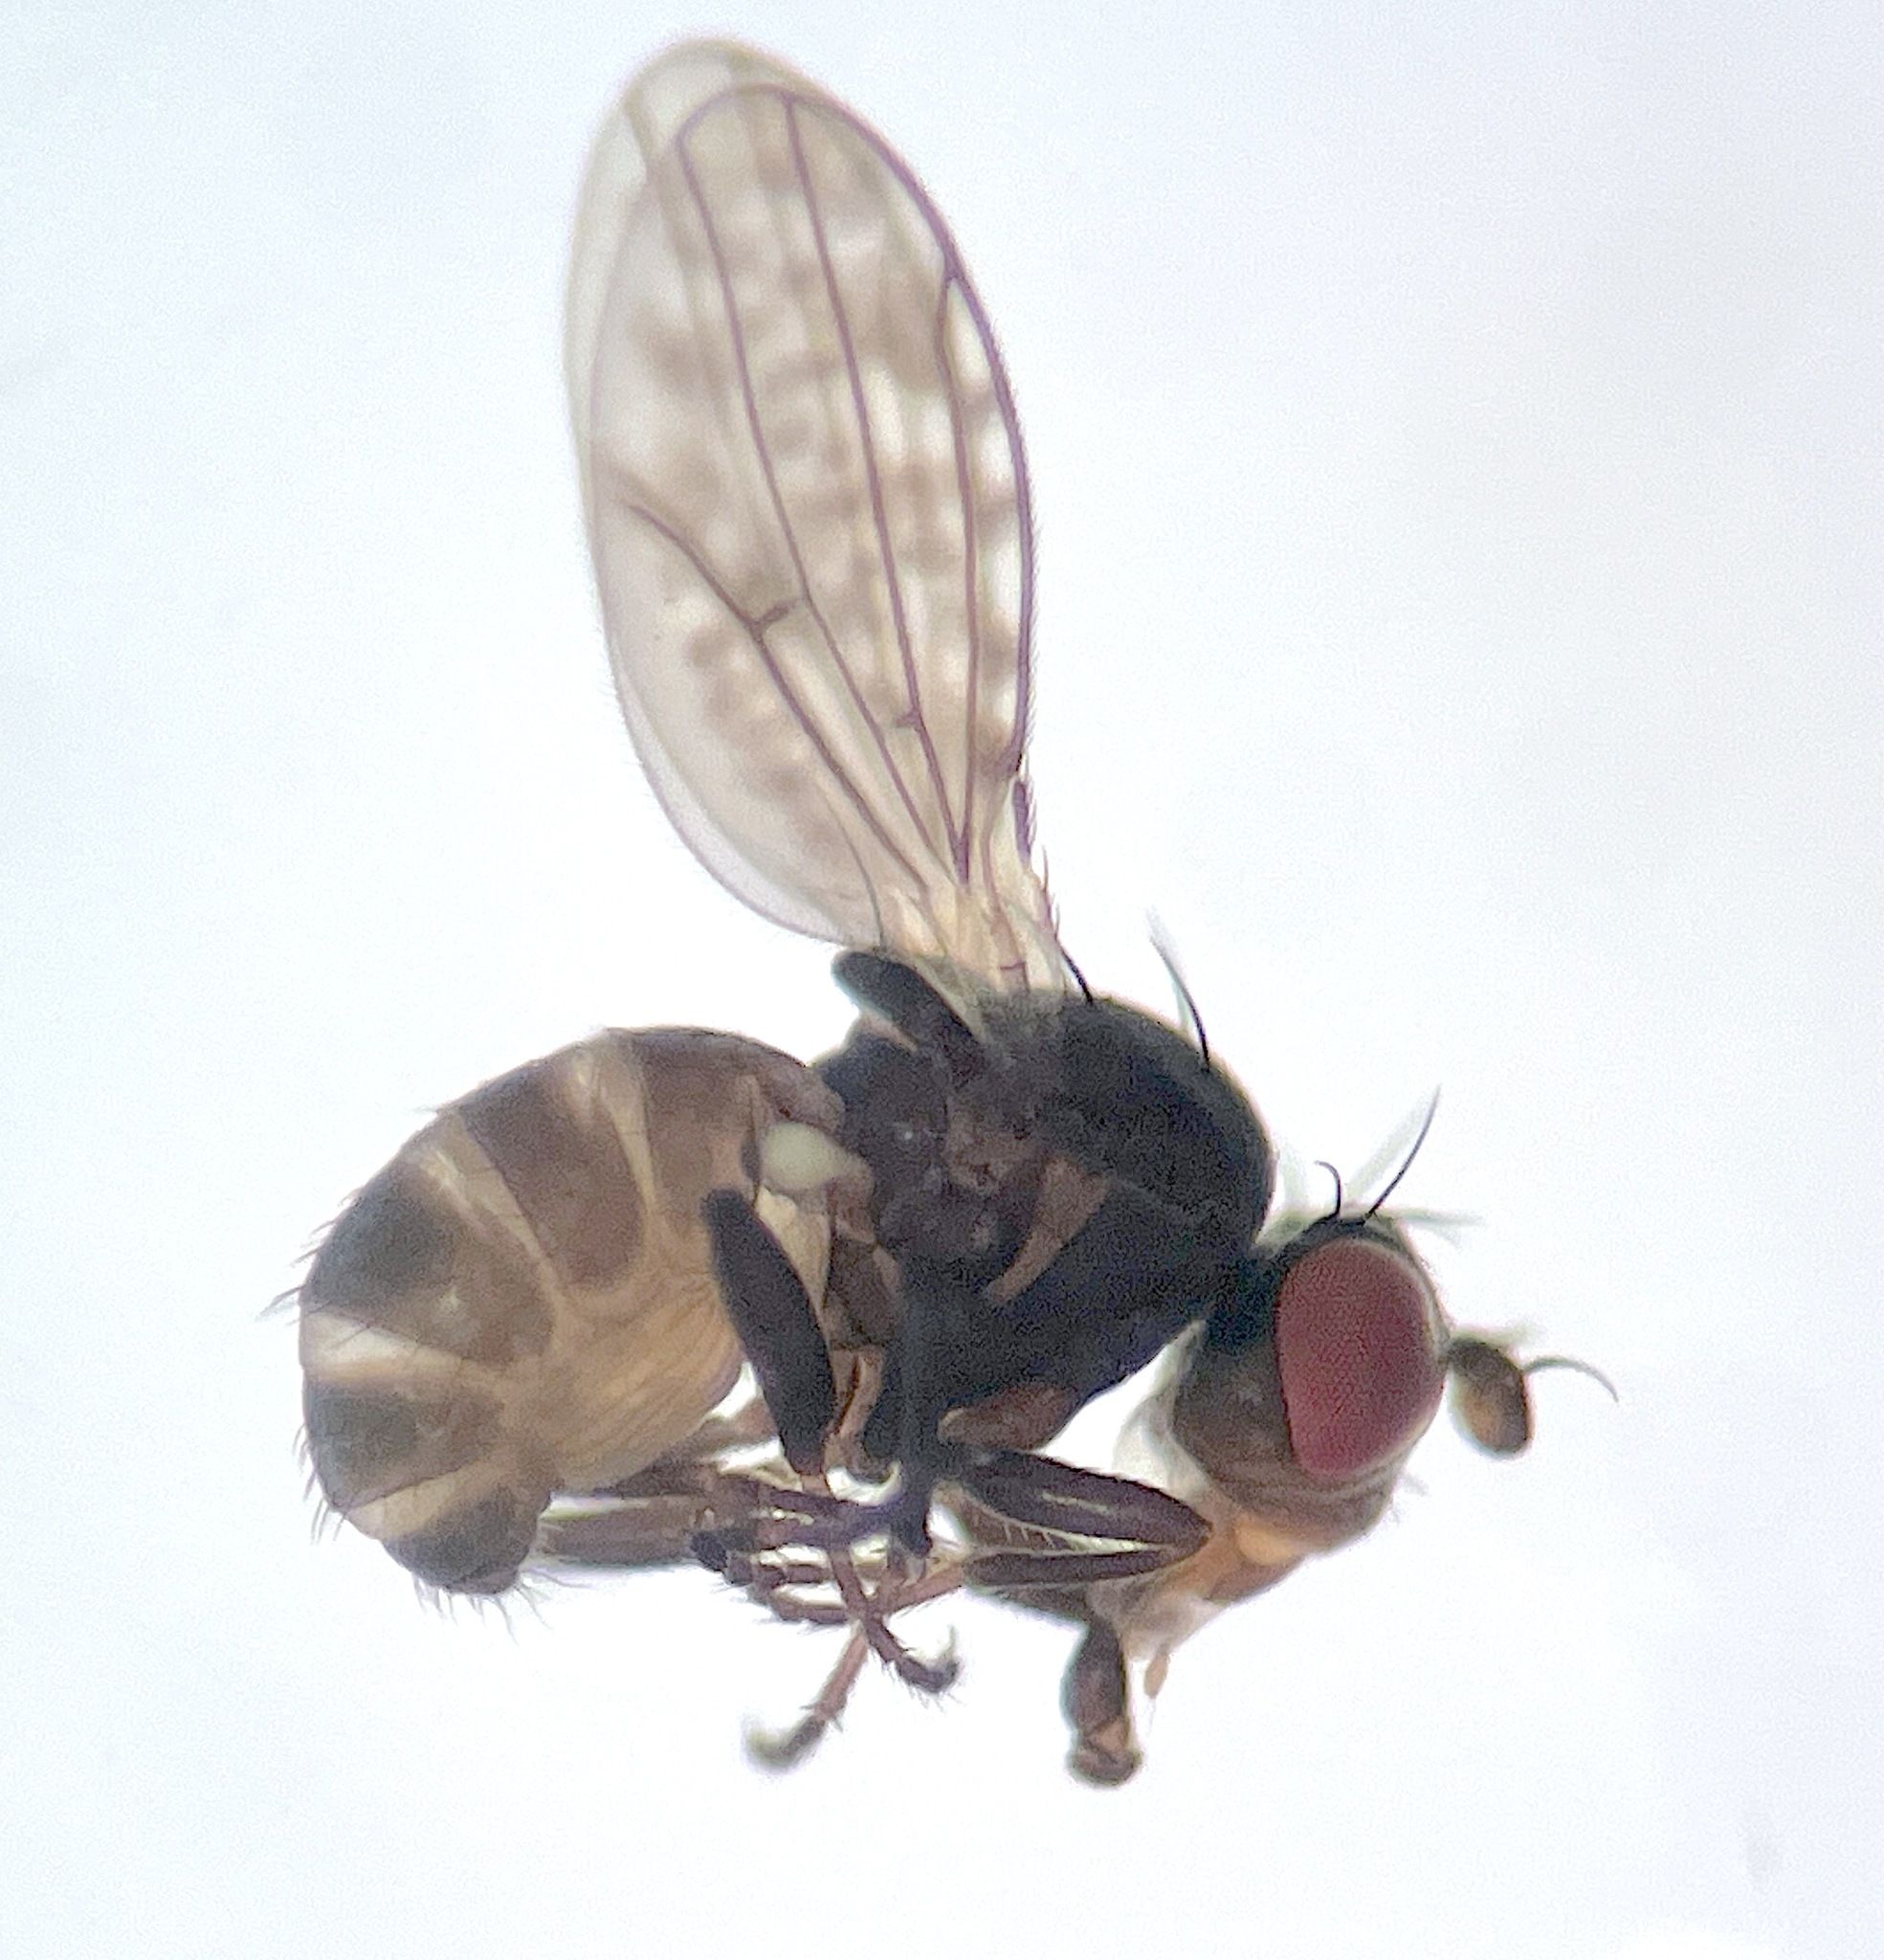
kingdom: Animalia
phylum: Arthropoda
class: Insecta
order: Diptera
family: Ephydridae
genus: Nostima
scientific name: Nostima duoseta
